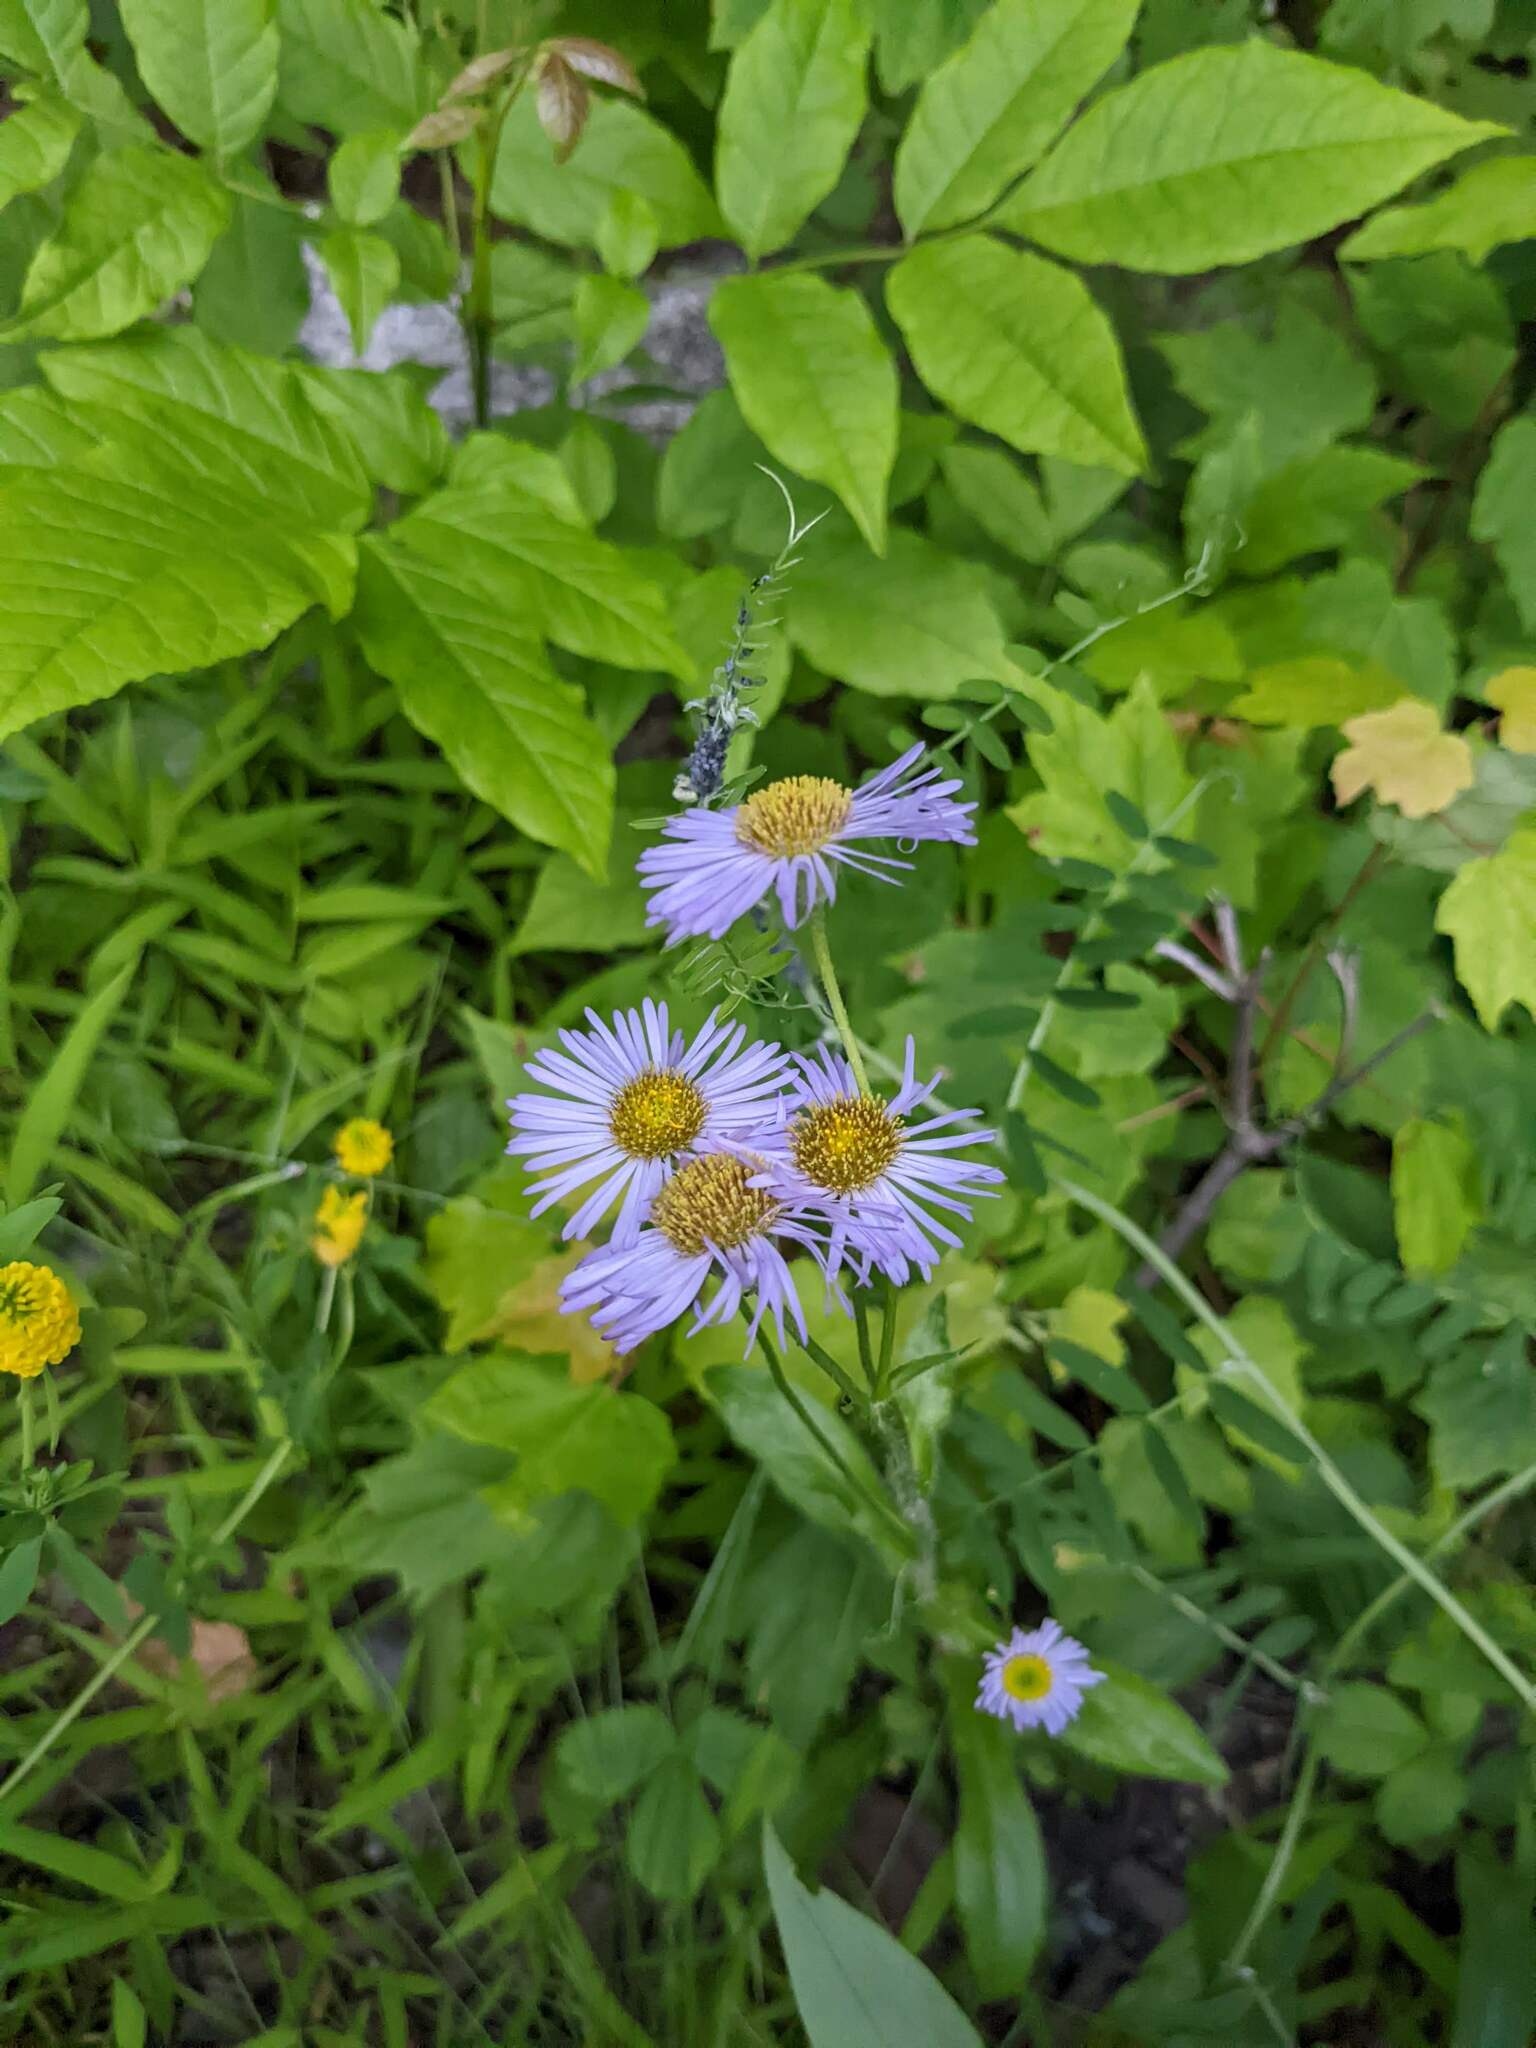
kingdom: Plantae
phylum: Tracheophyta
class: Magnoliopsida
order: Asterales
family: Asteraceae
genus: Erigeron
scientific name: Erigeron pulchellus
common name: Hairy fleabane
